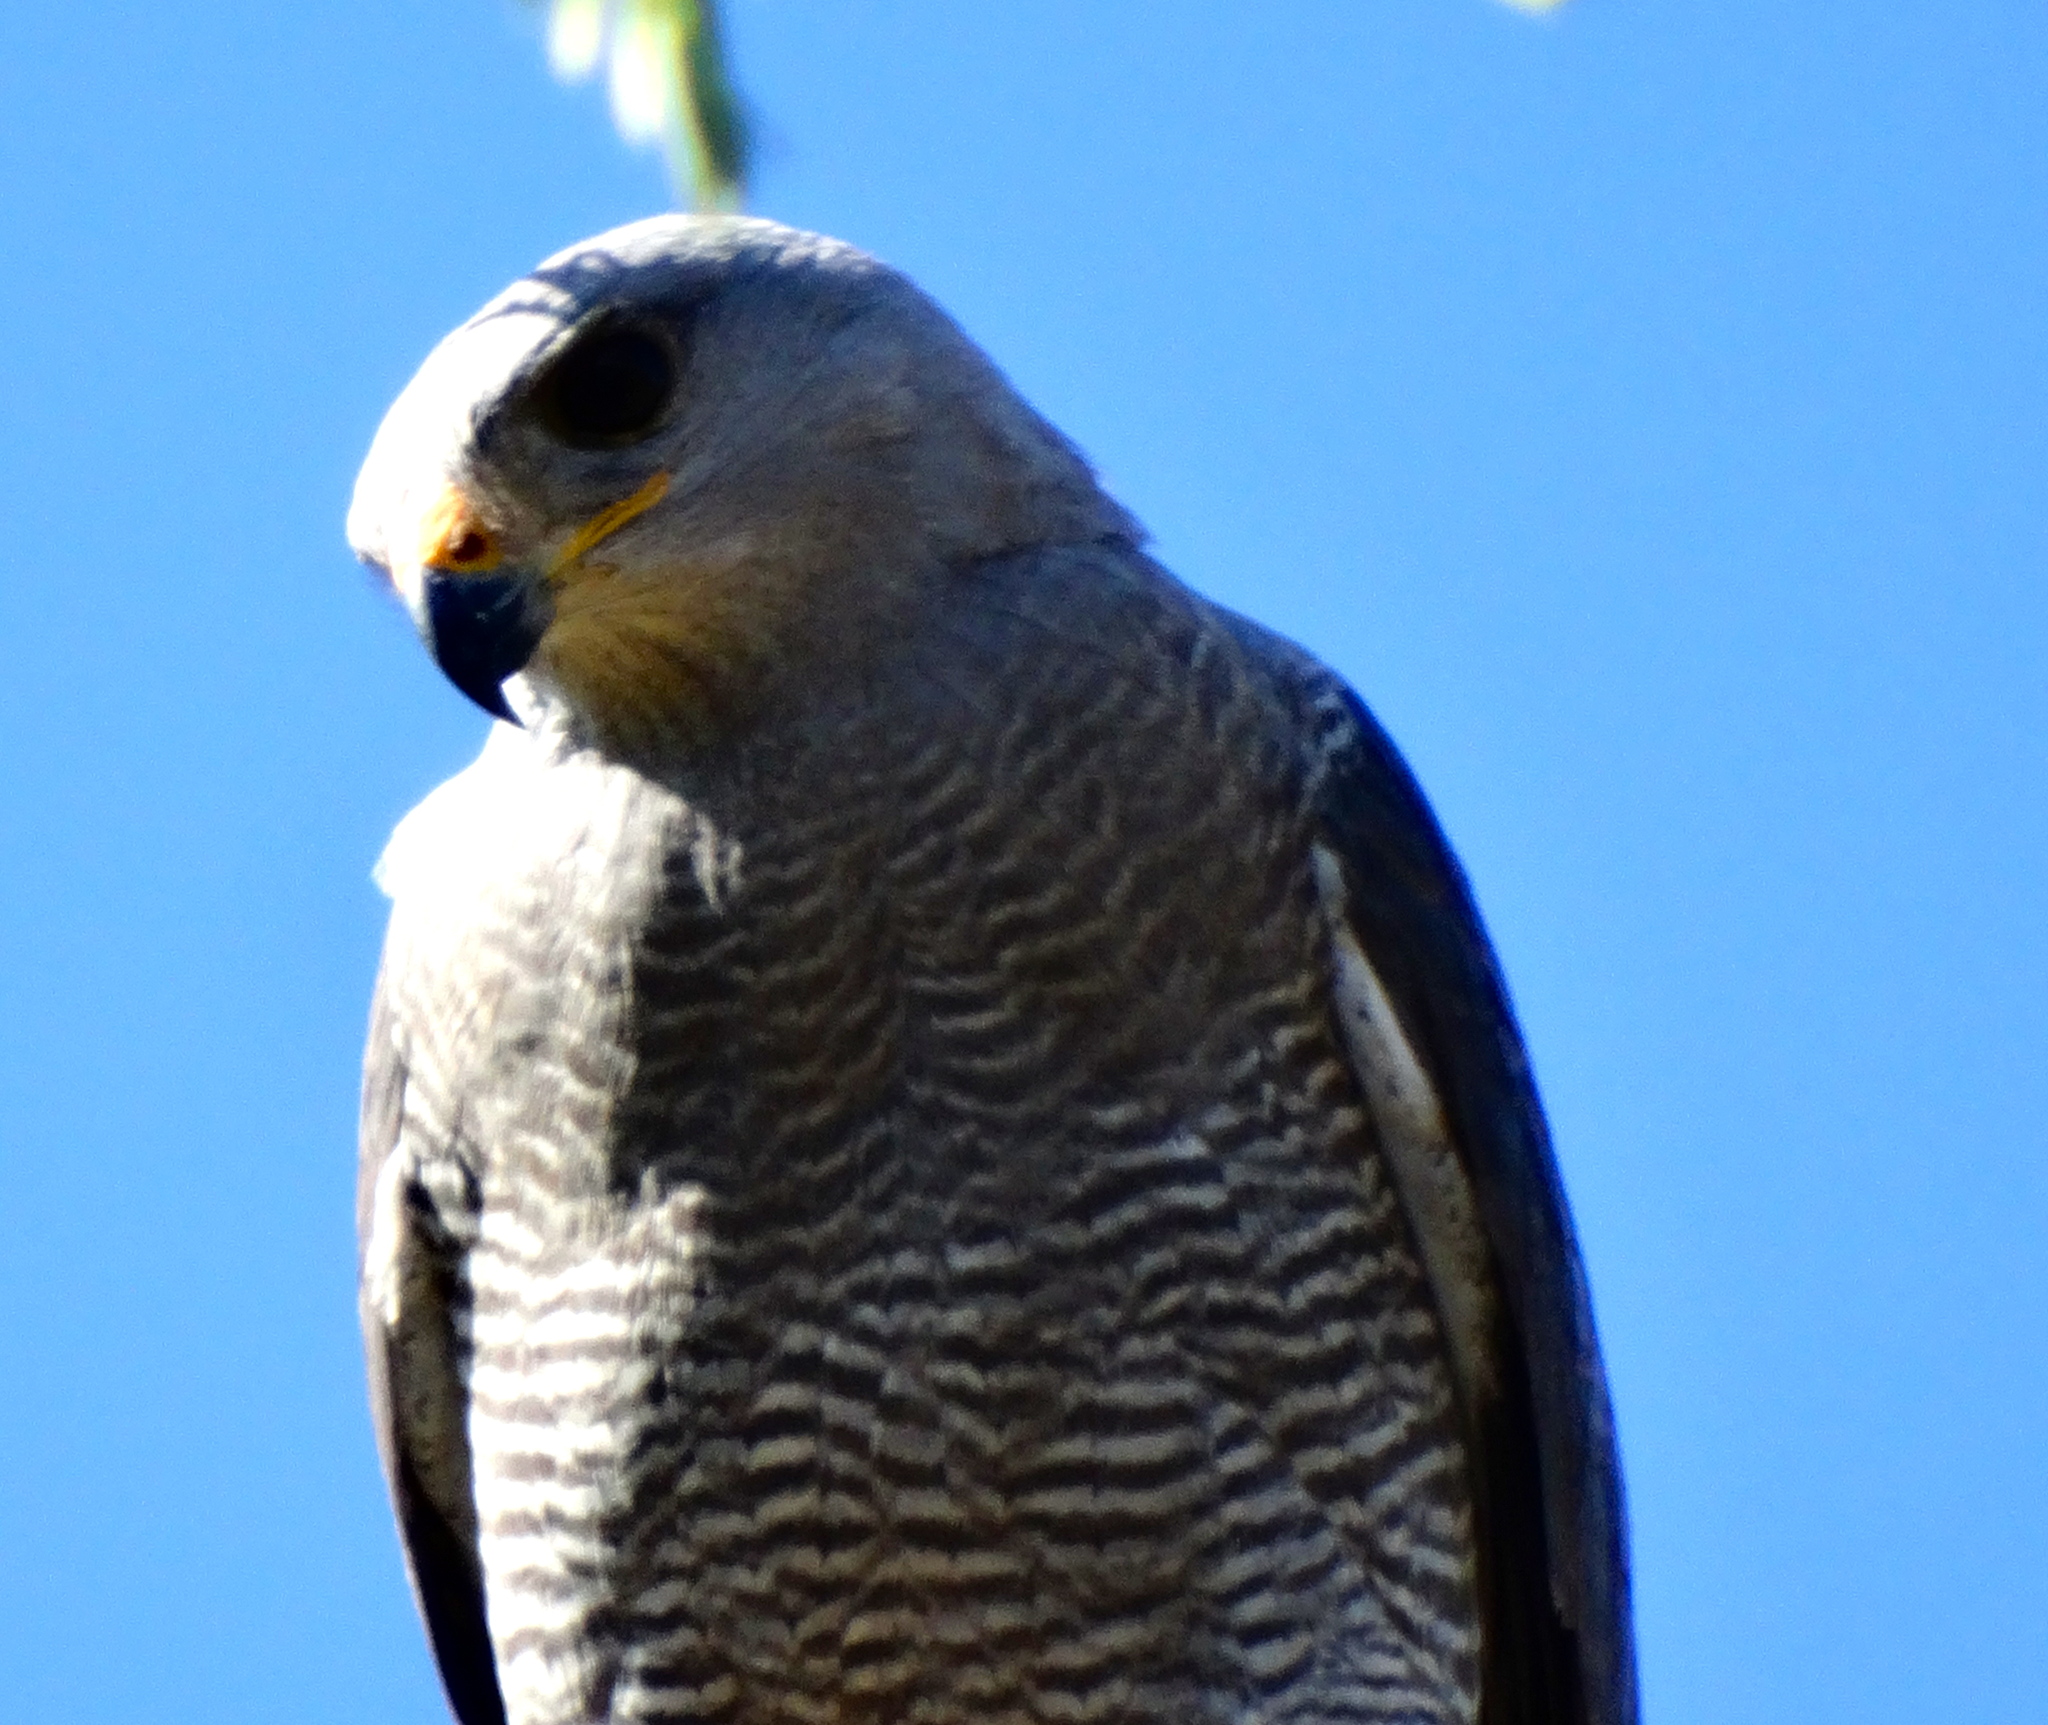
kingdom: Animalia
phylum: Chordata
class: Aves
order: Accipitriformes
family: Accipitridae
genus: Buteo
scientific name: Buteo nitidus
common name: Grey-lined hawk
